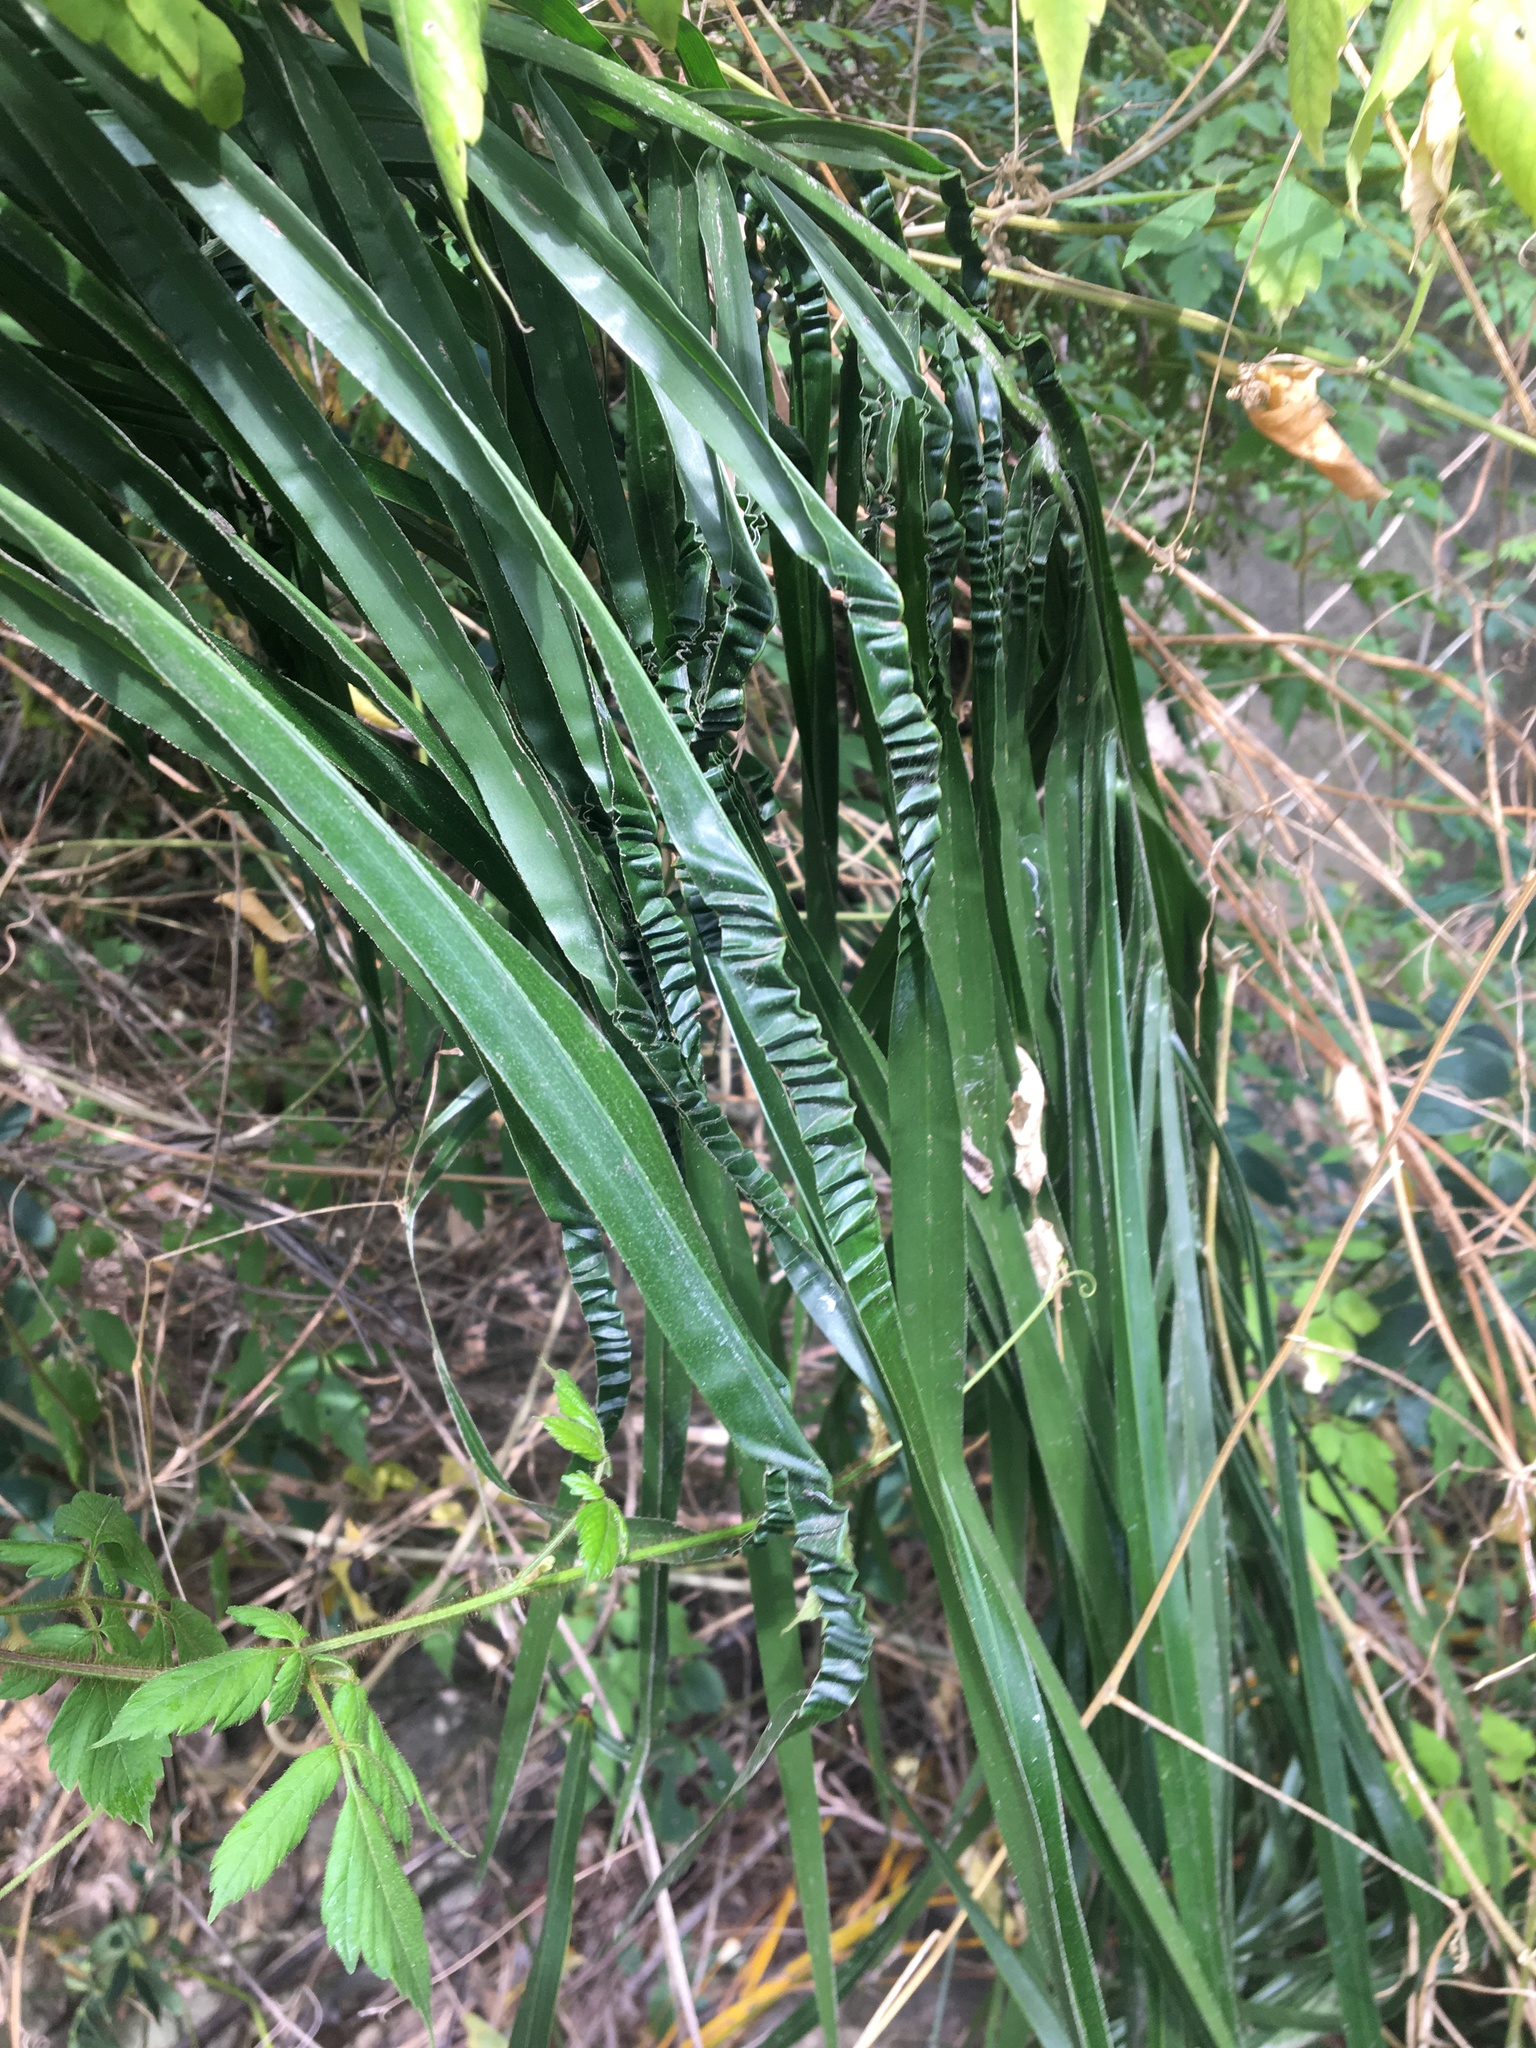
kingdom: Plantae
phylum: Tracheophyta
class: Liliopsida
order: Arecales
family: Arecaceae
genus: Syagrus
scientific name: Syagrus romanzoffiana
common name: Queen palm
